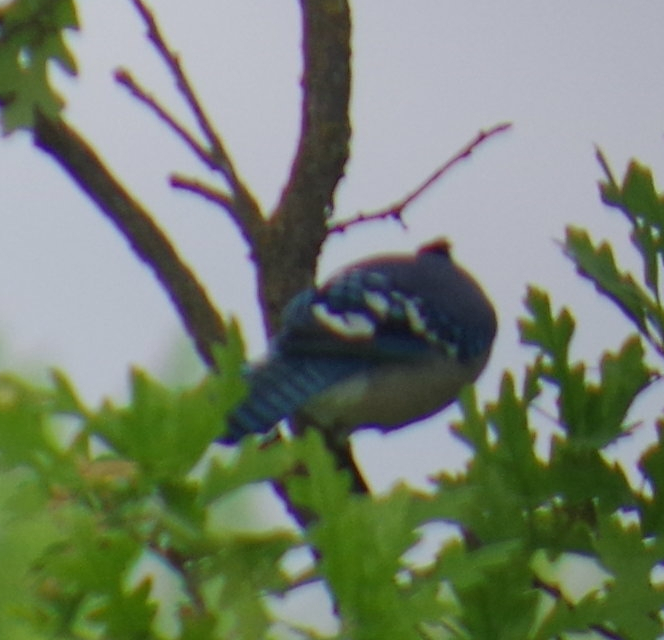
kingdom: Animalia
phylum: Chordata
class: Aves
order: Passeriformes
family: Corvidae
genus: Cyanocitta
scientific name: Cyanocitta cristata
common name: Blue jay
